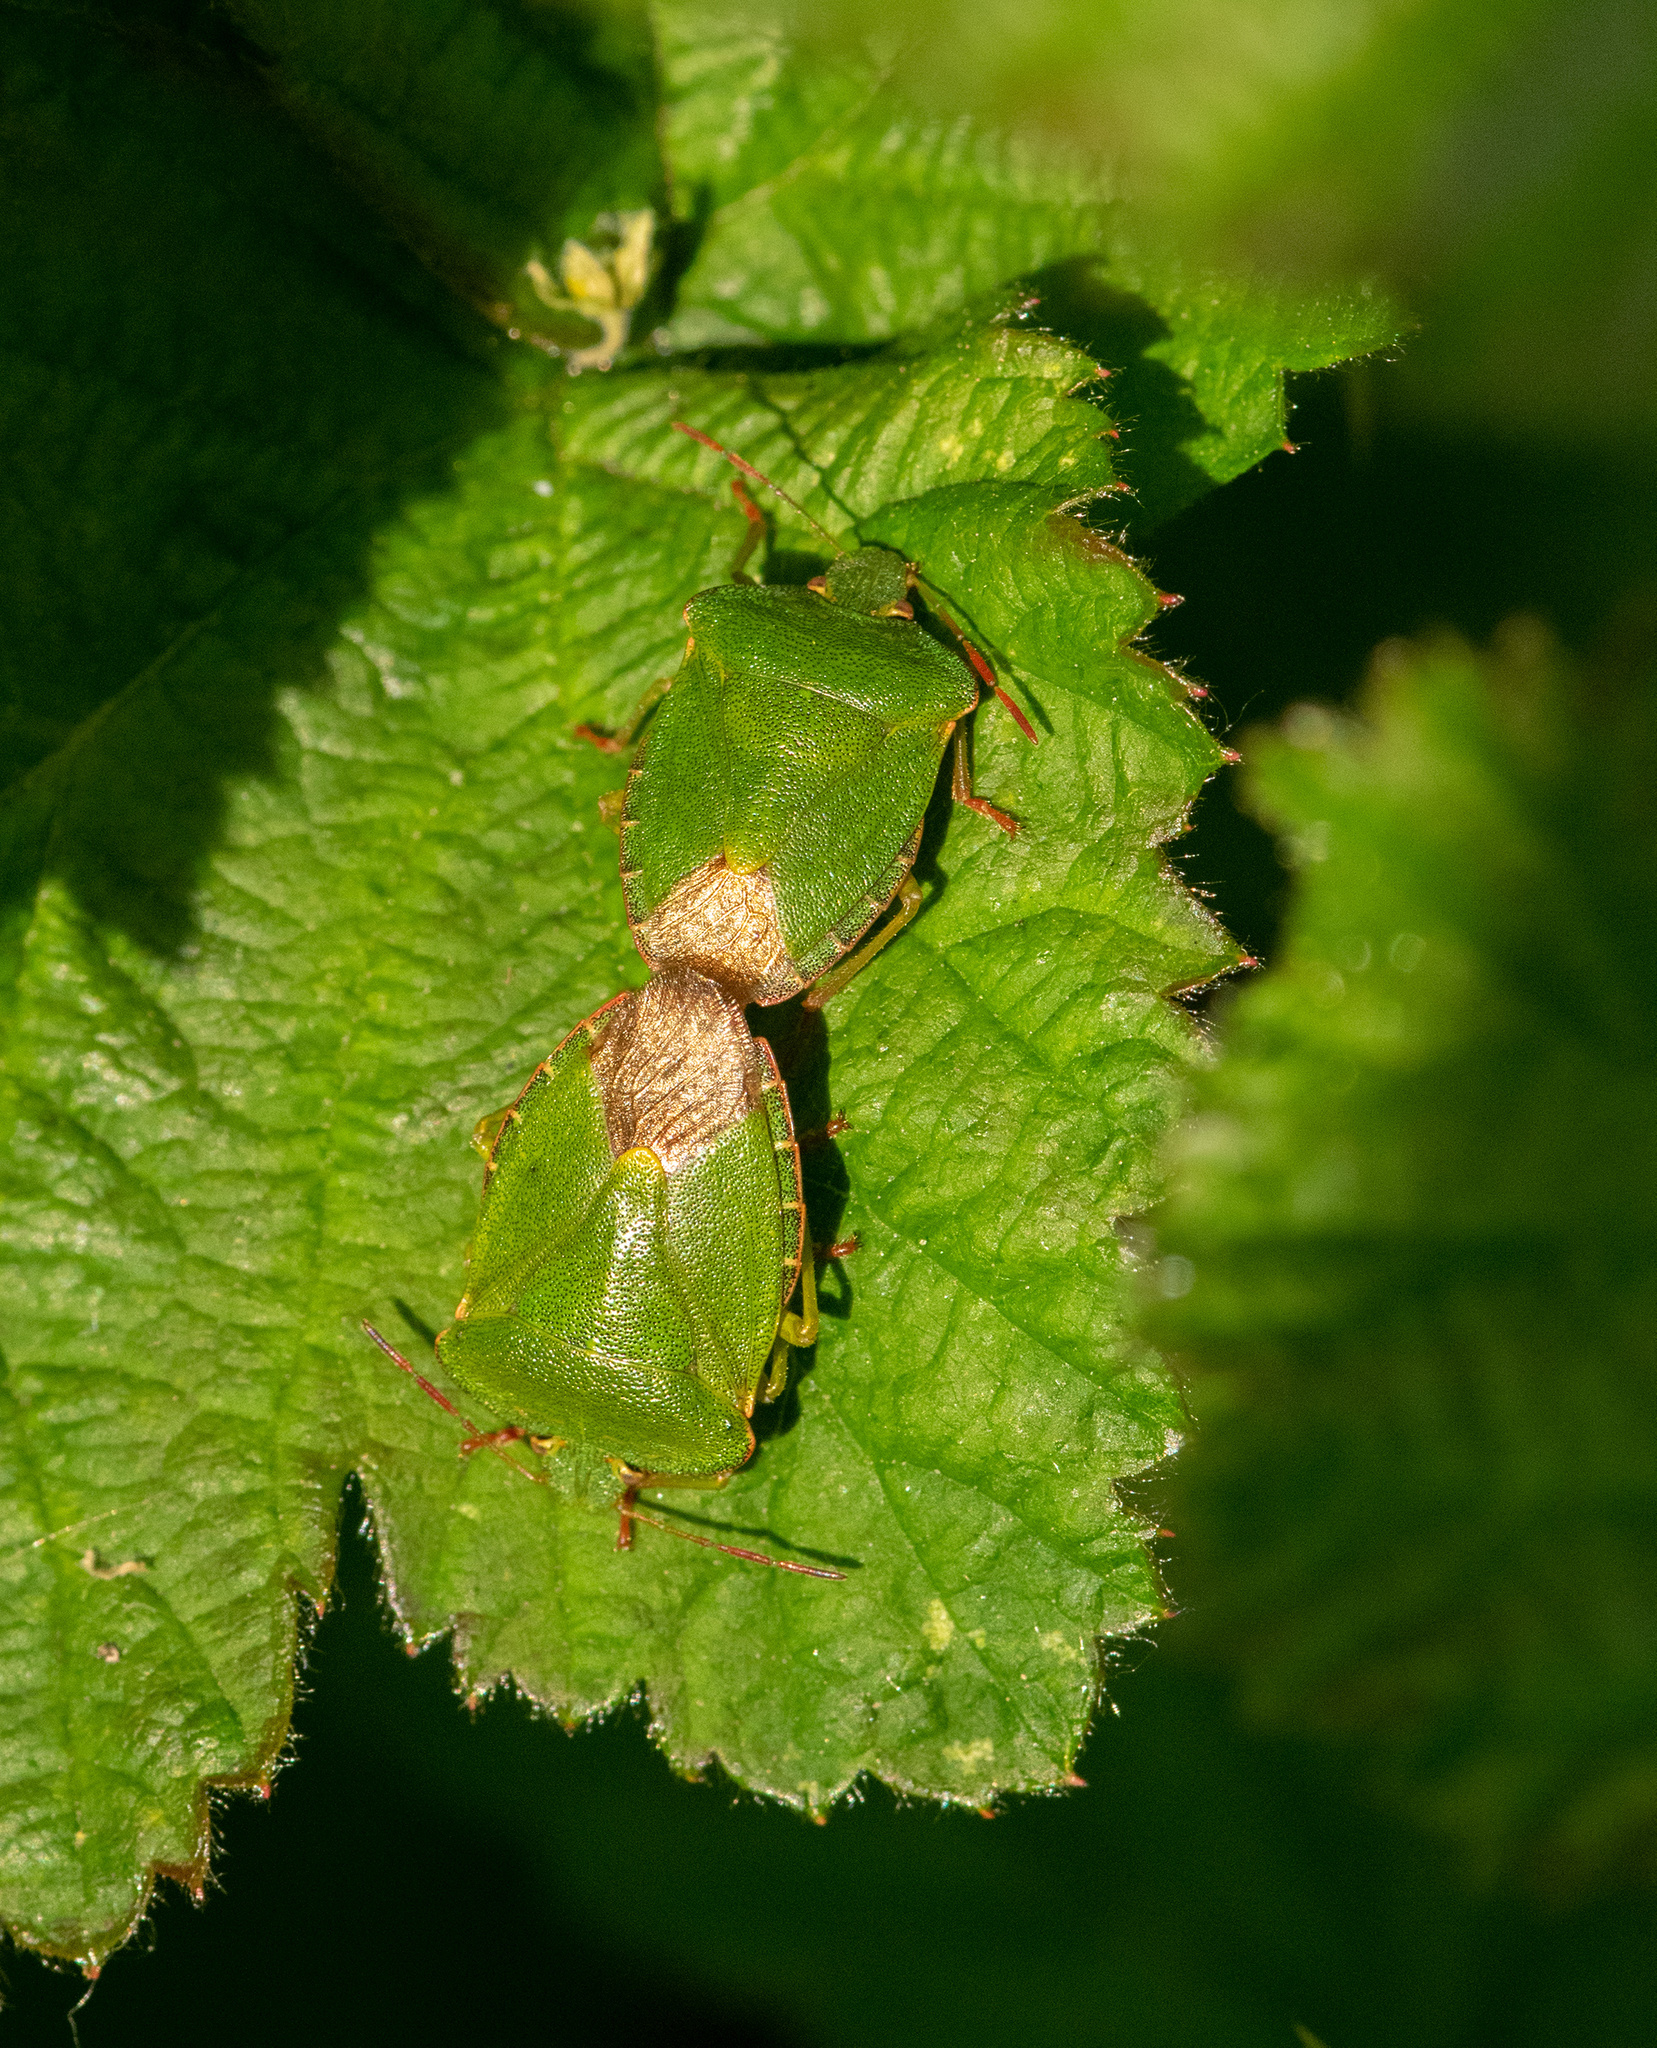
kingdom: Animalia
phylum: Arthropoda
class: Insecta
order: Hemiptera
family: Pentatomidae
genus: Palomena
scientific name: Palomena prasina
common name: Green shieldbug
